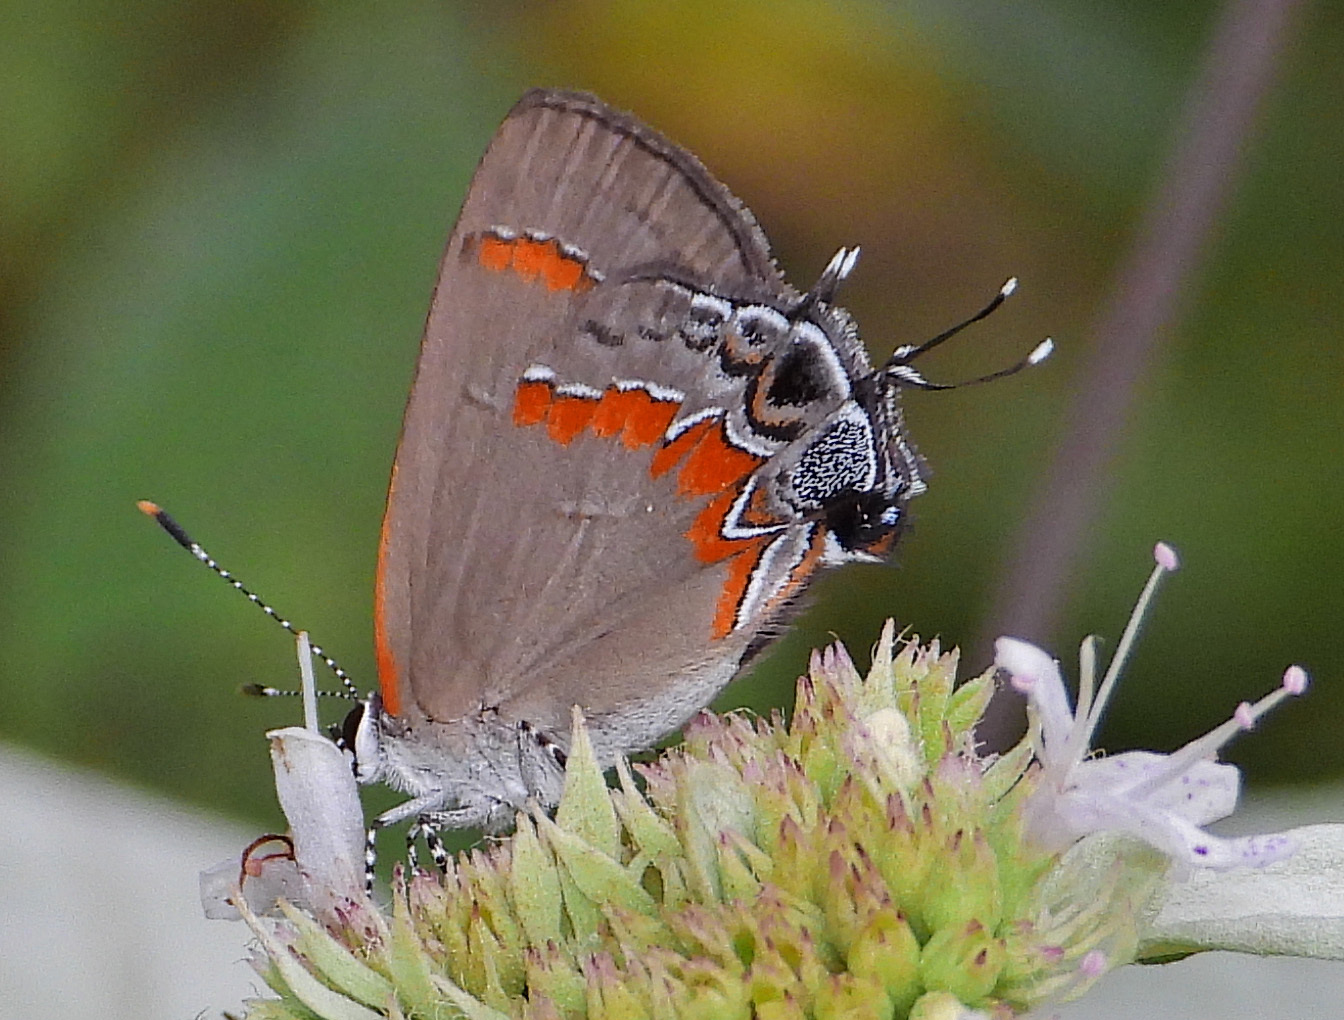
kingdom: Animalia
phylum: Arthropoda
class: Insecta
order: Lepidoptera
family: Lycaenidae
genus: Calycopis
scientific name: Calycopis cecrops
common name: Red-banded hairstreak
